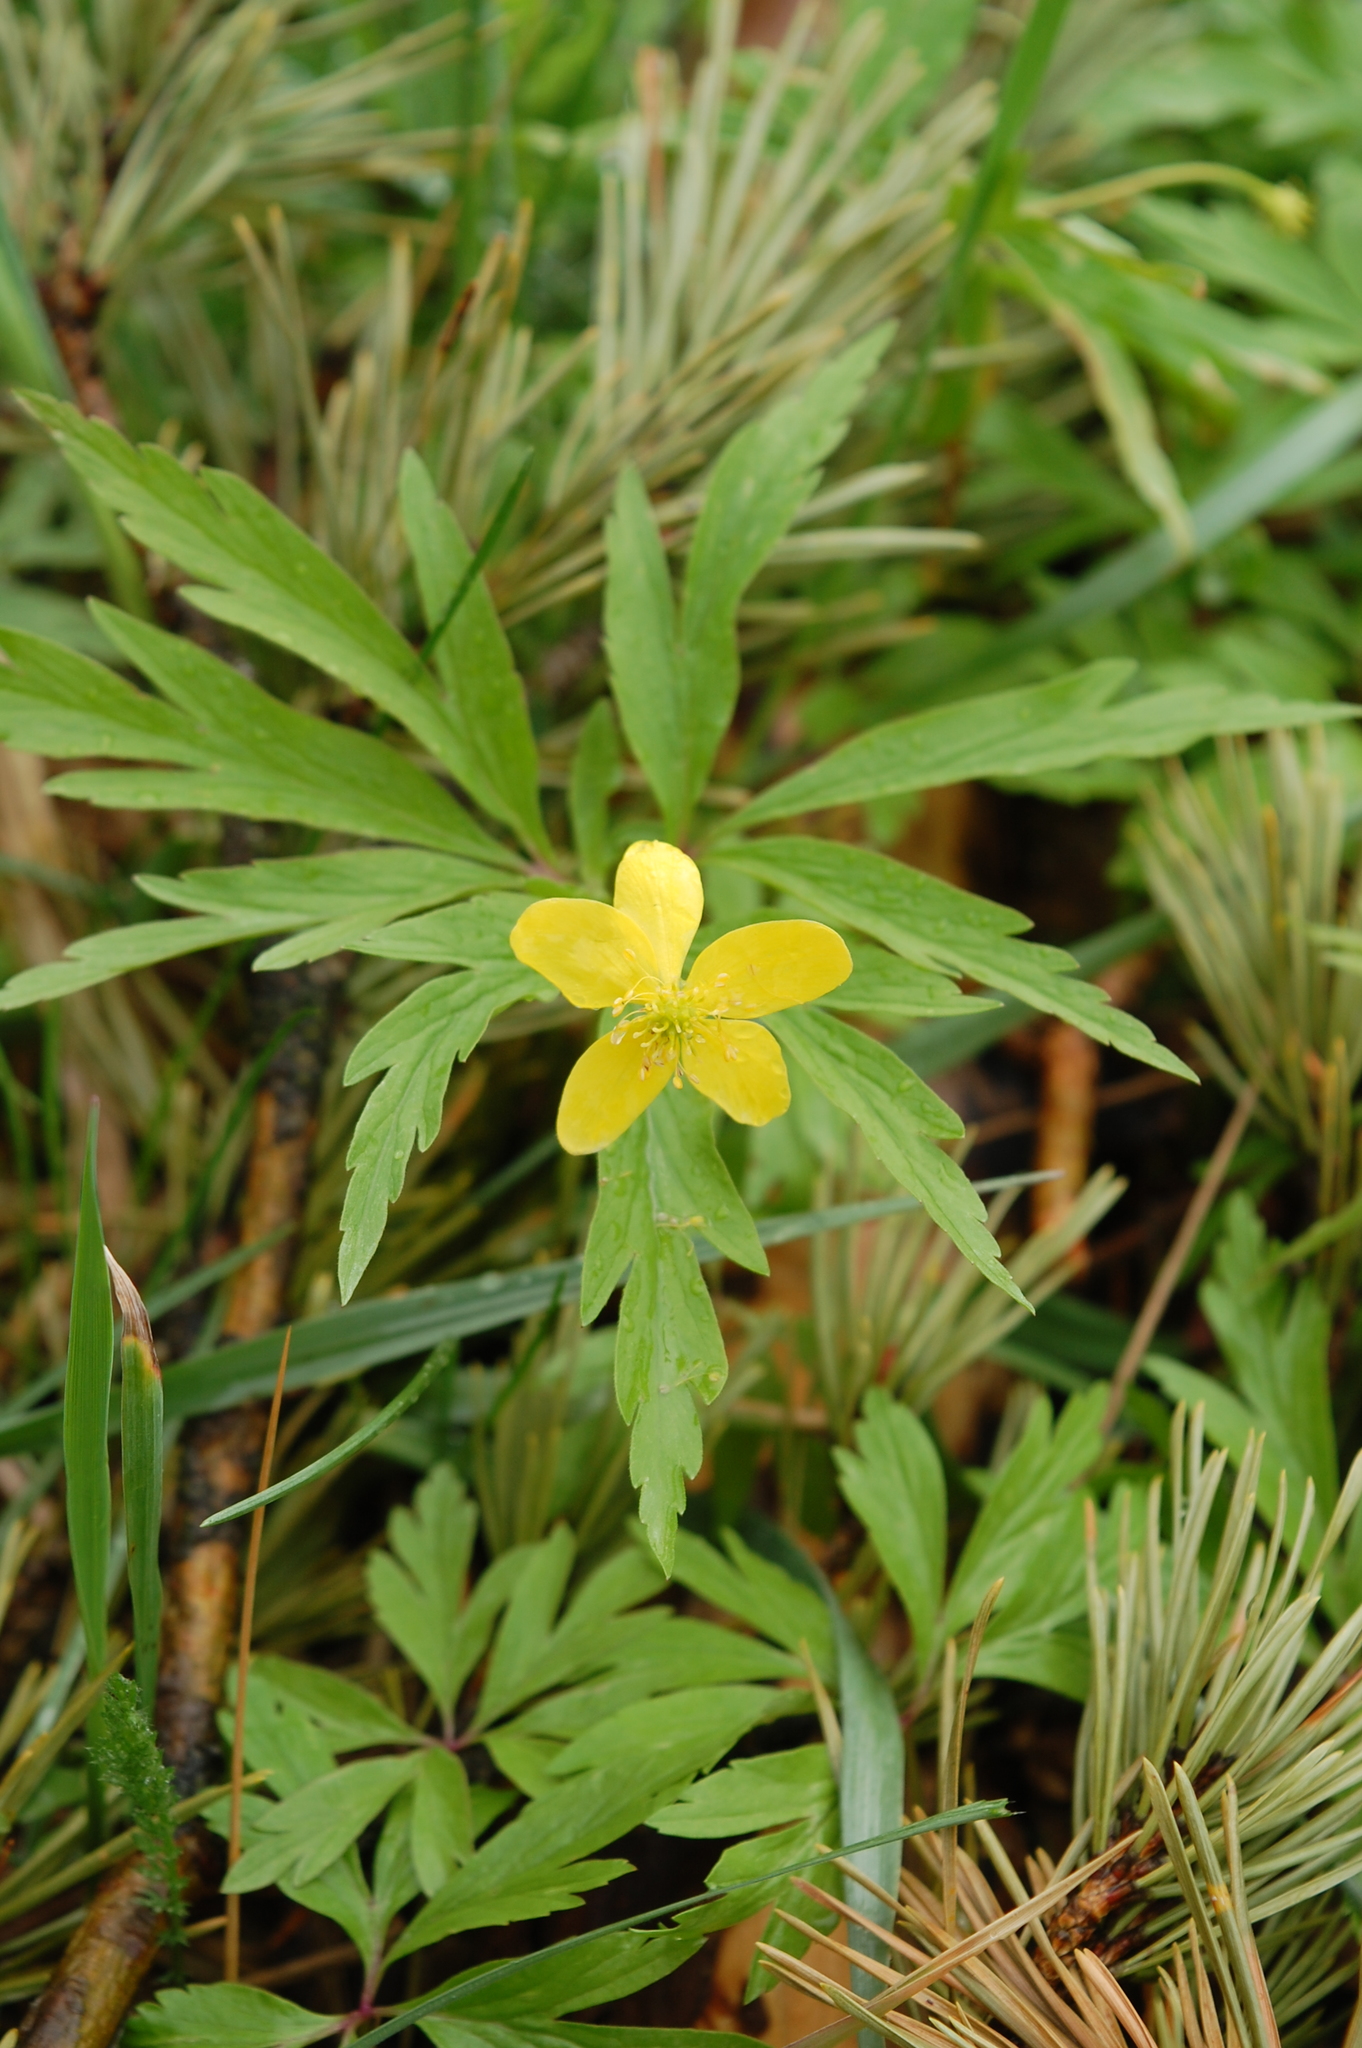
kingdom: Plantae
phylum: Tracheophyta
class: Magnoliopsida
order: Ranunculales
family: Ranunculaceae
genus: Anemone
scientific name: Anemone ranunculoides
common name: Yellow anemone
